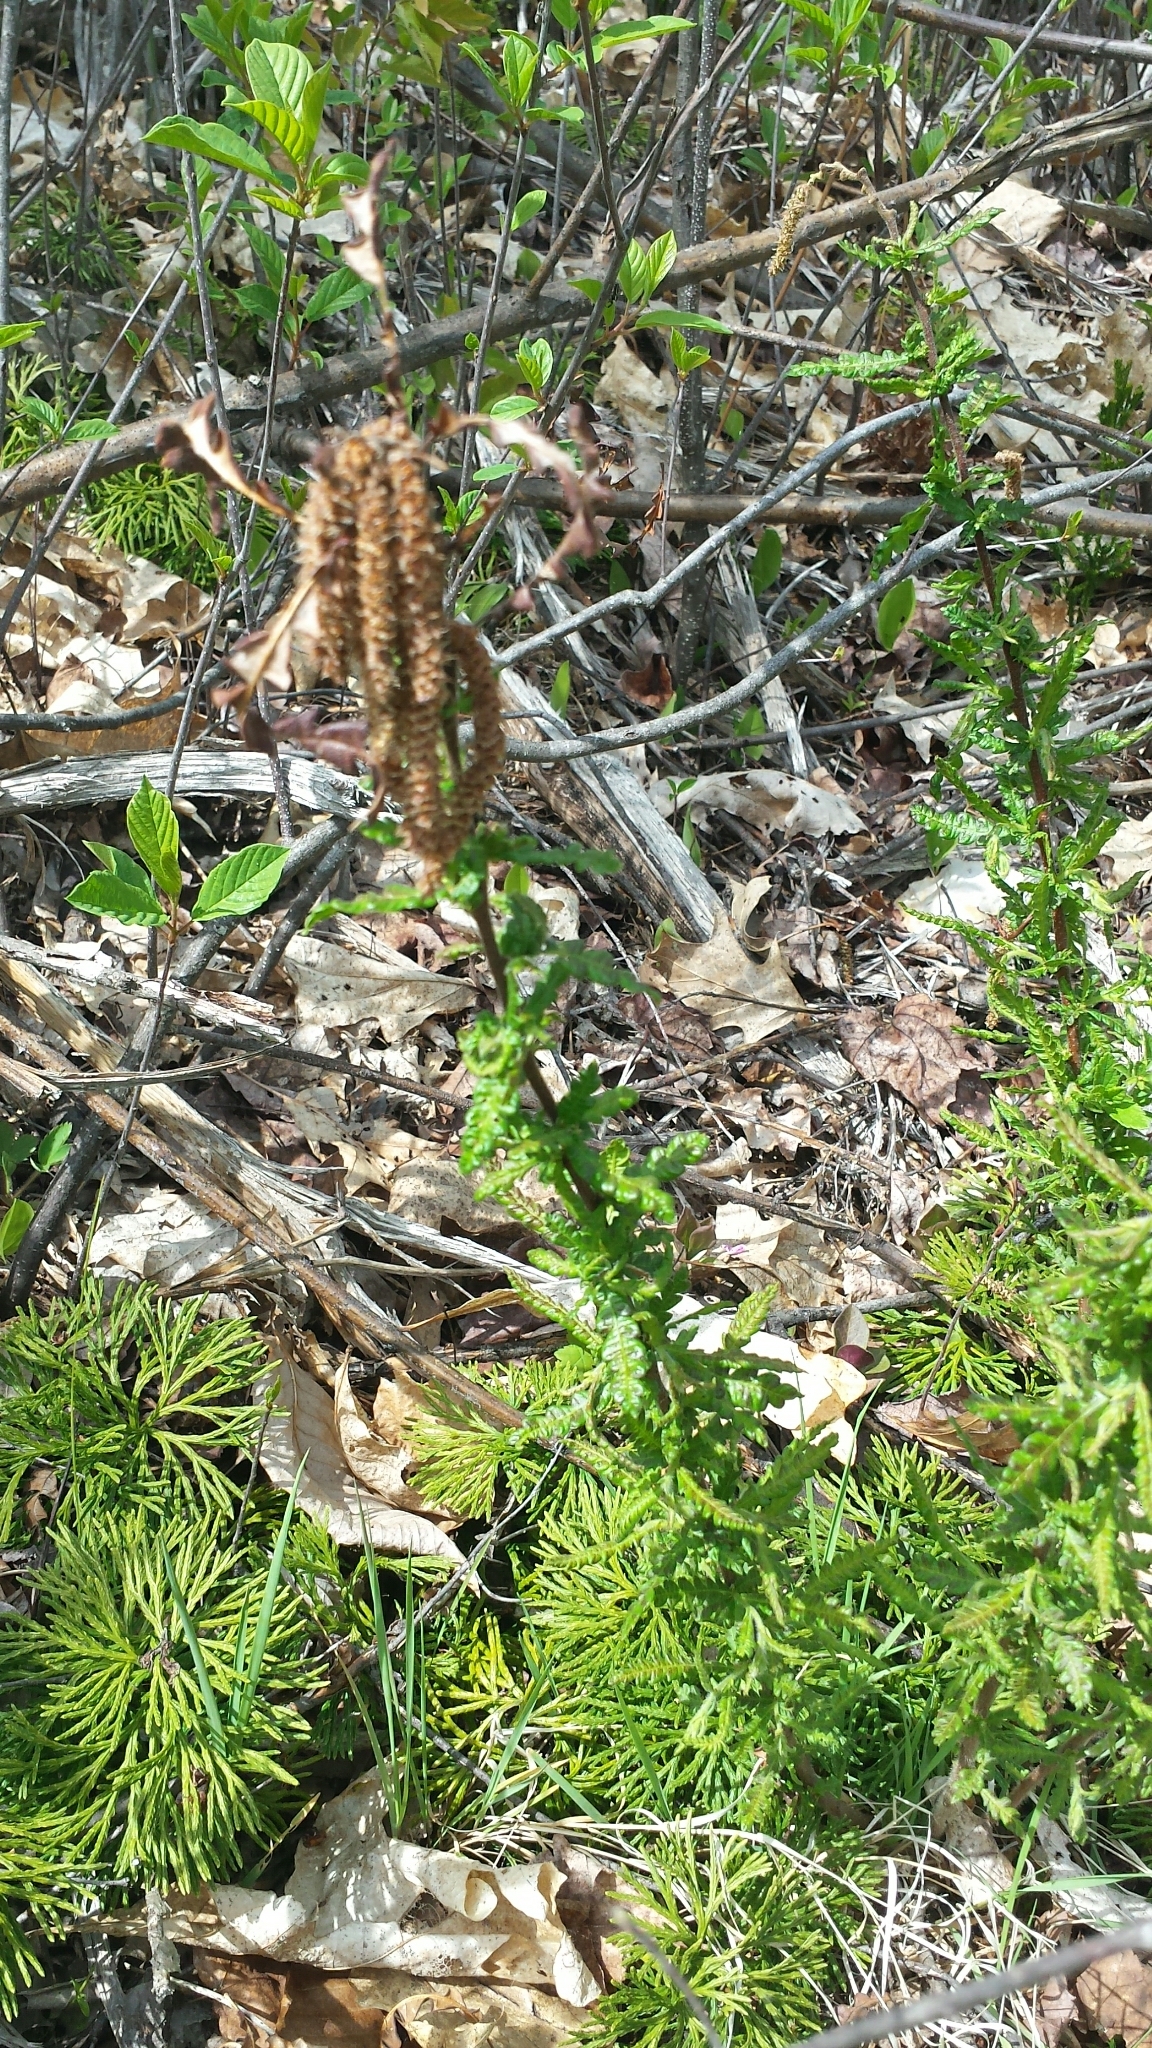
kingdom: Plantae
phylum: Tracheophyta
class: Magnoliopsida
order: Fagales
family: Myricaceae
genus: Comptonia
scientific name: Comptonia peregrina
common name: Sweet-fern
